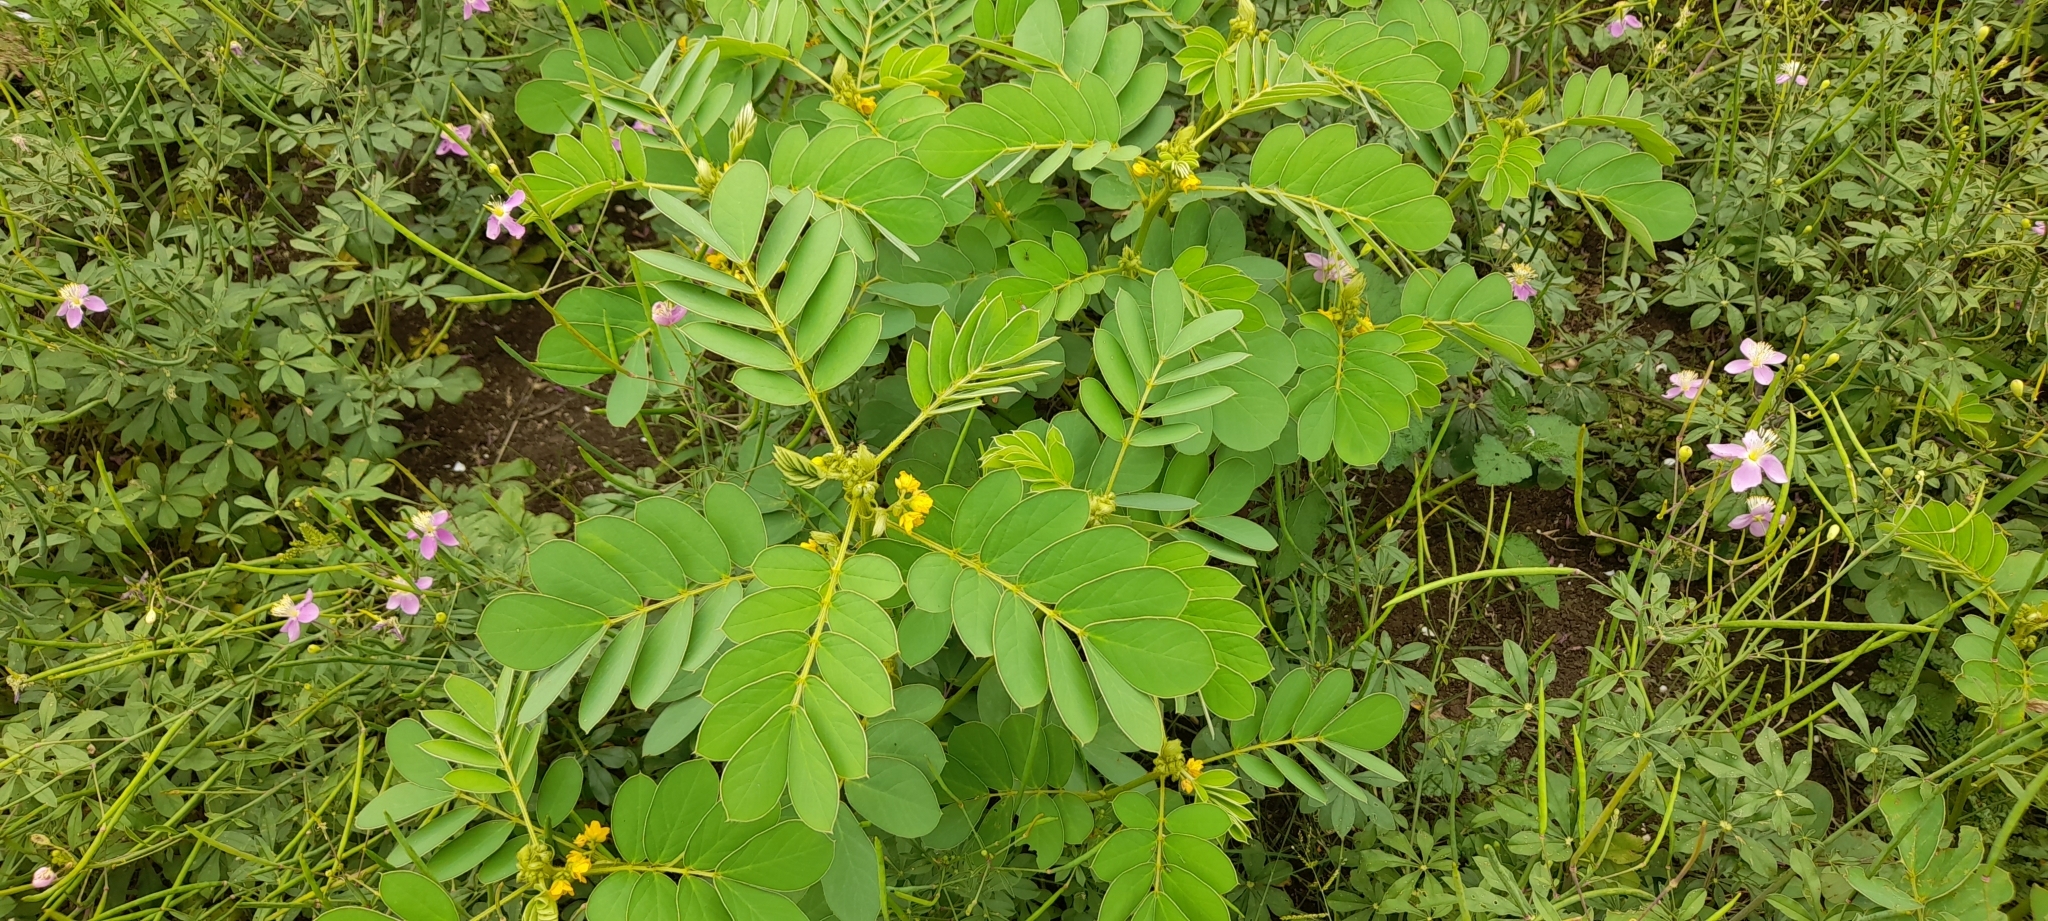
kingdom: Plantae
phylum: Tracheophyta
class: Magnoliopsida
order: Fabales
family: Fabaceae
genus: Senna
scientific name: Senna uniflora
